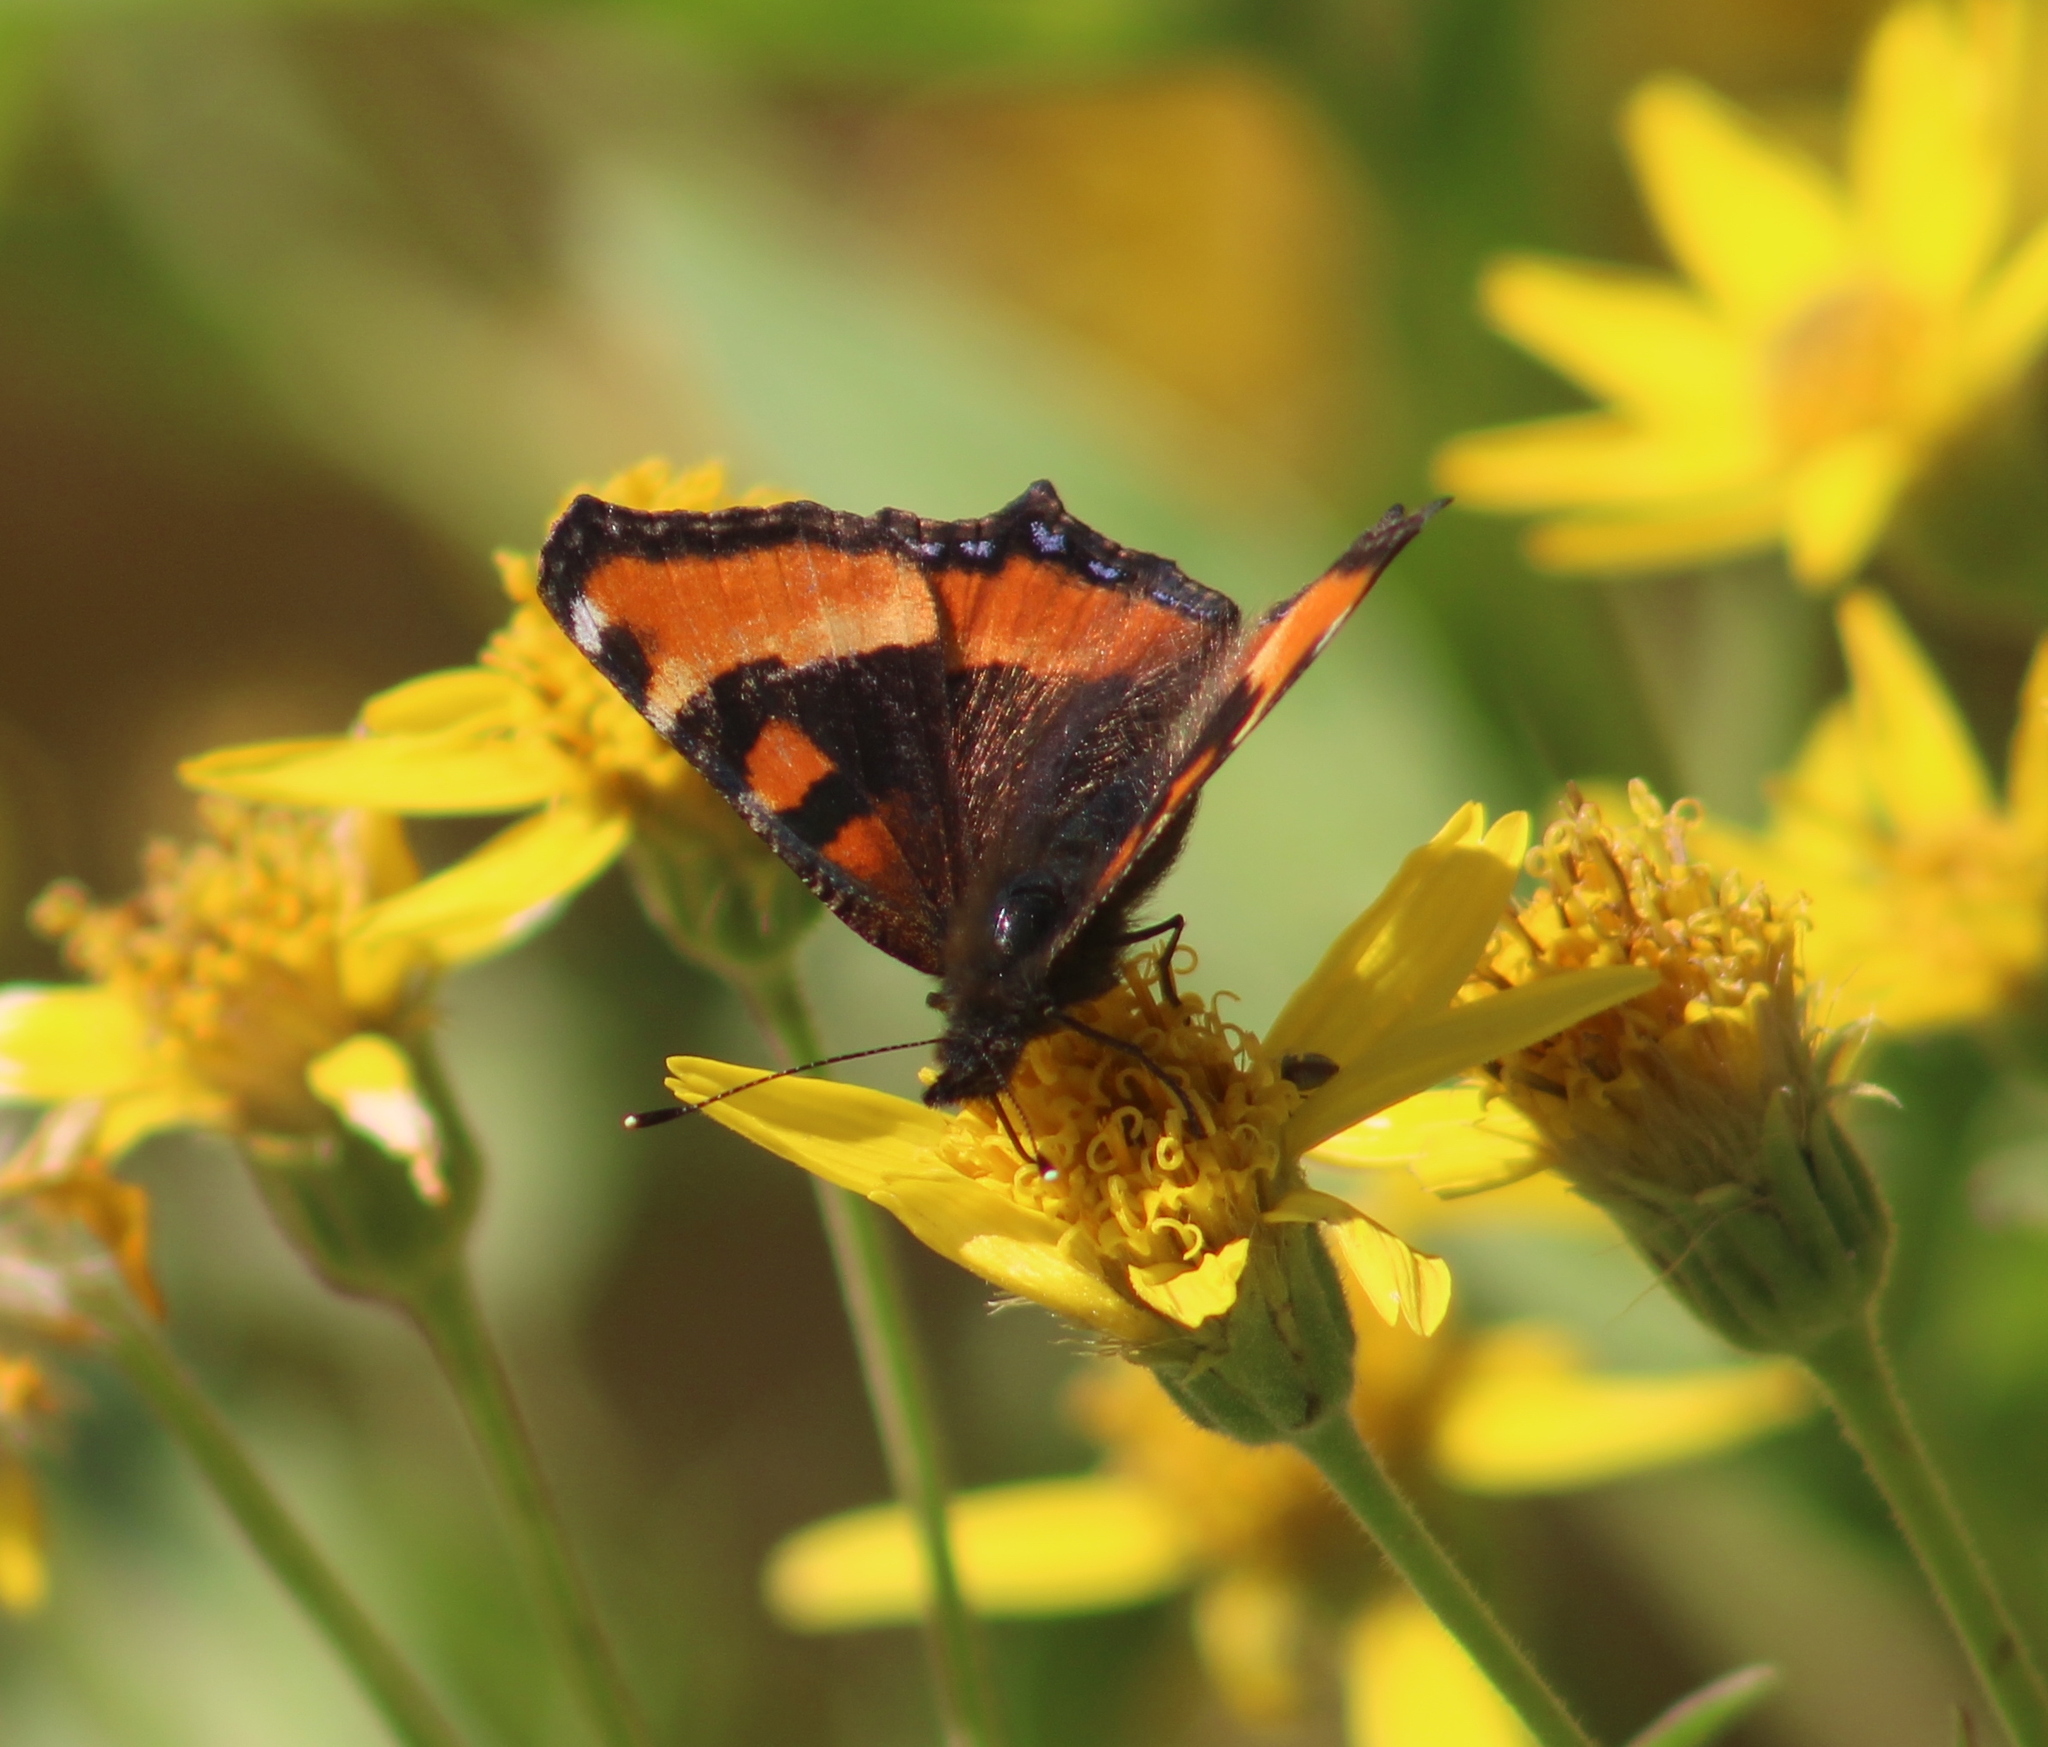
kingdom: Animalia
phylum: Arthropoda
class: Insecta
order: Lepidoptera
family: Nymphalidae
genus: Aglais
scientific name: Aglais milberti
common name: Milbert's tortoiseshell
